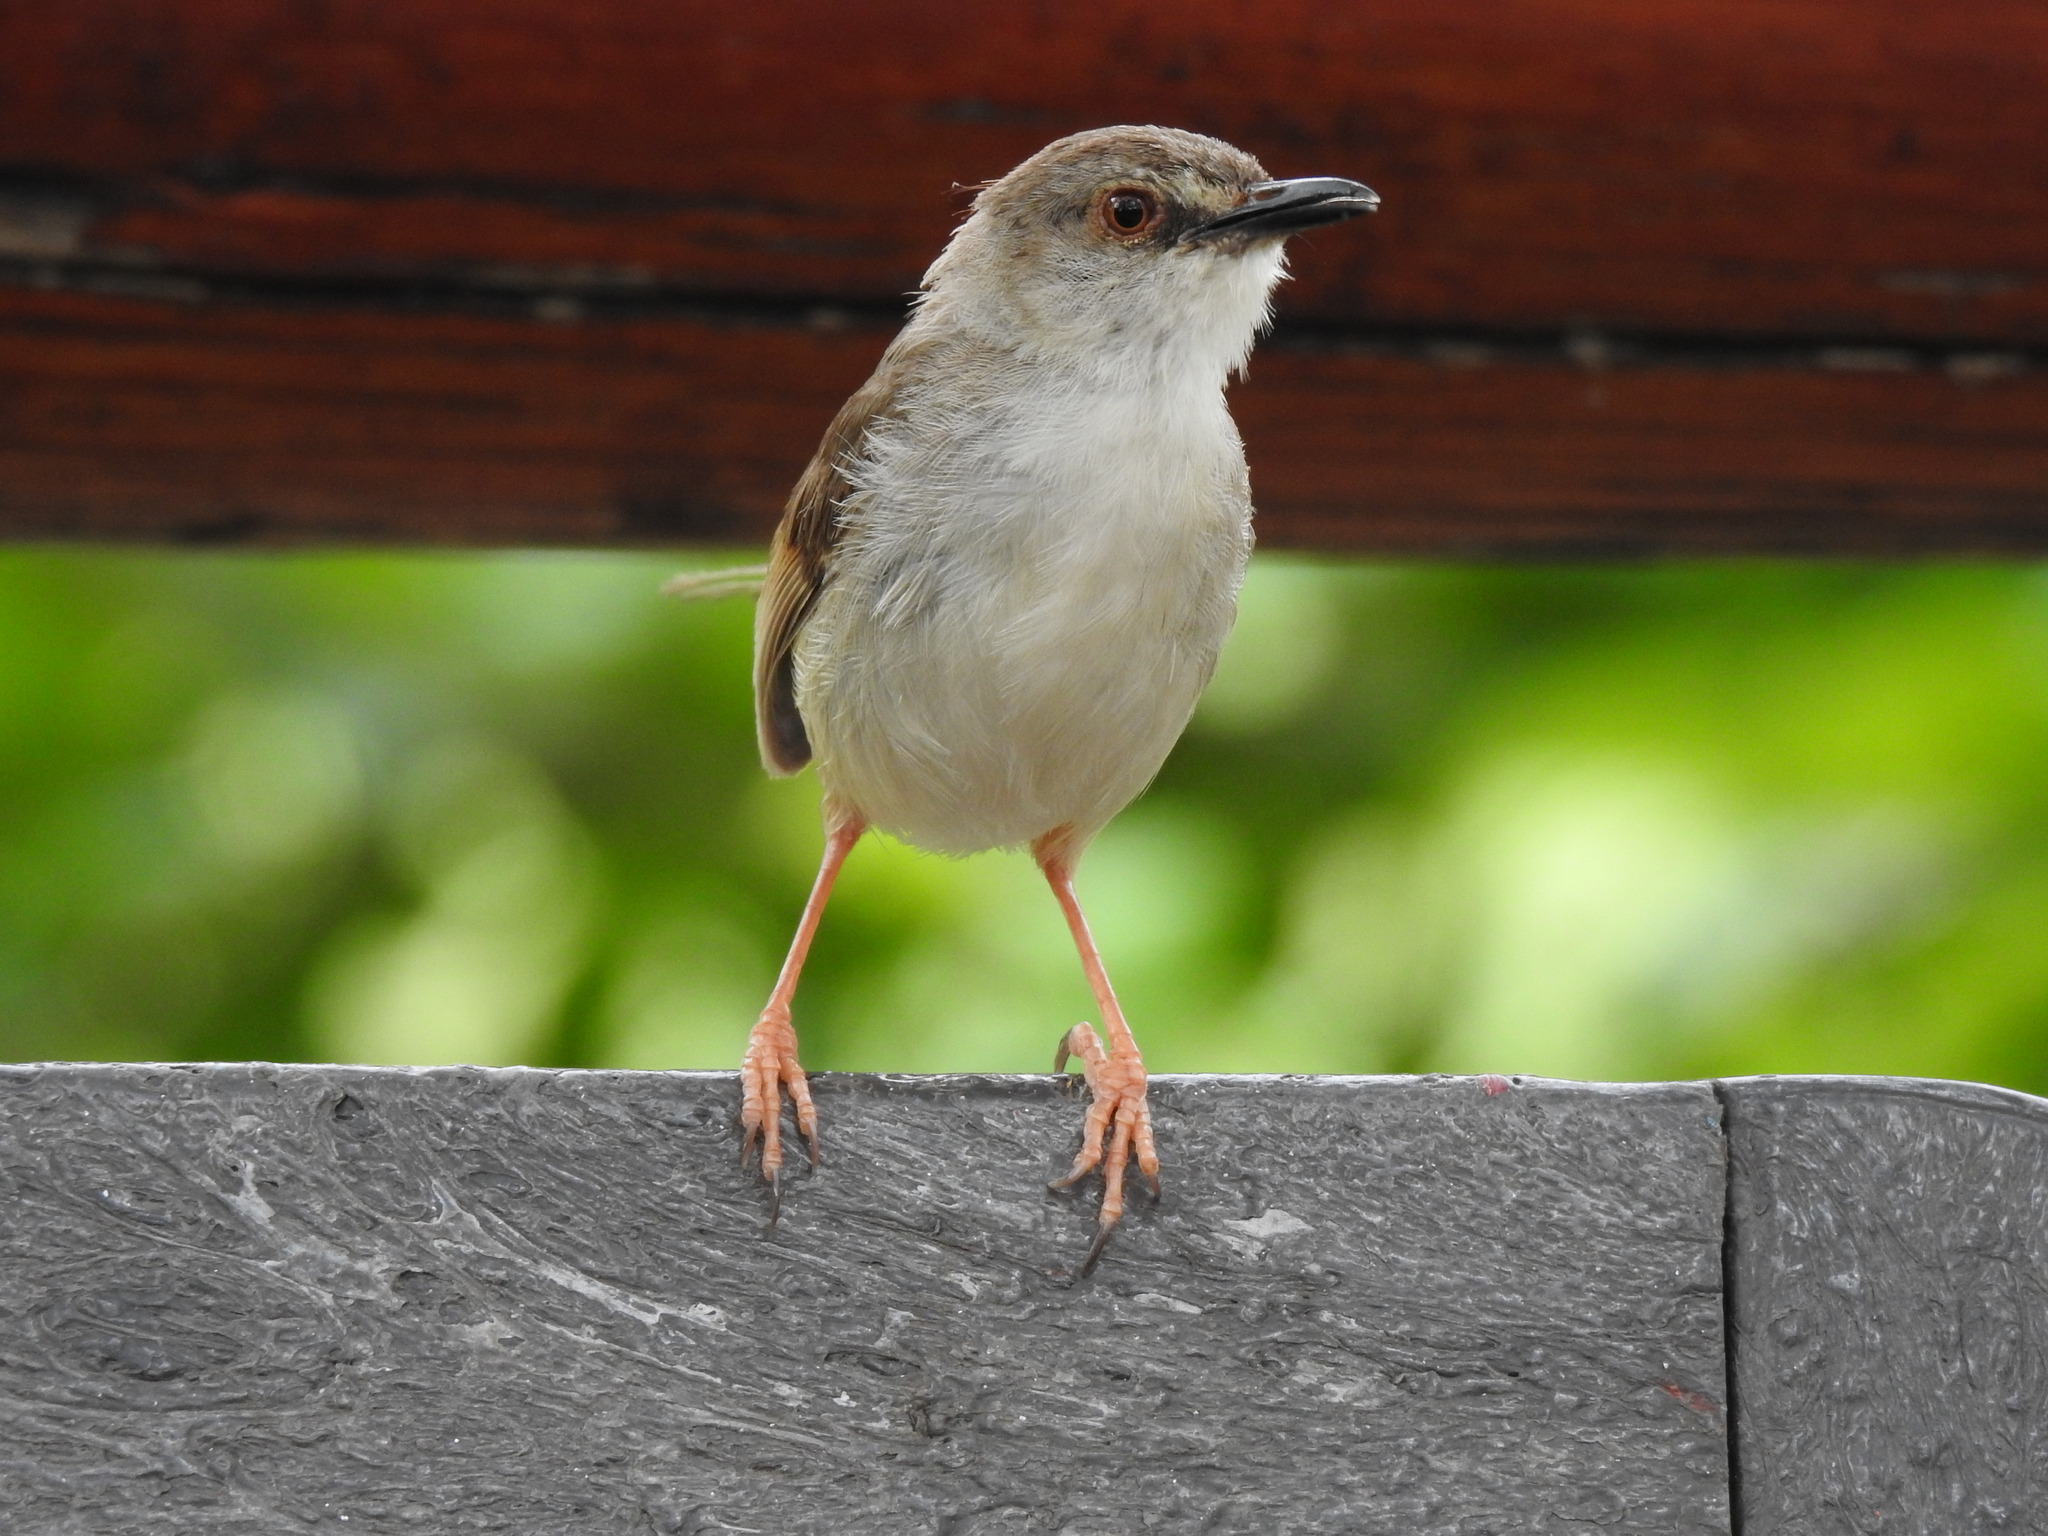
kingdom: Animalia
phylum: Chordata
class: Aves
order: Passeriformes
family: Cisticolidae
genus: Prinia
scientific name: Prinia subflava
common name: Tawny-flanked prinia
